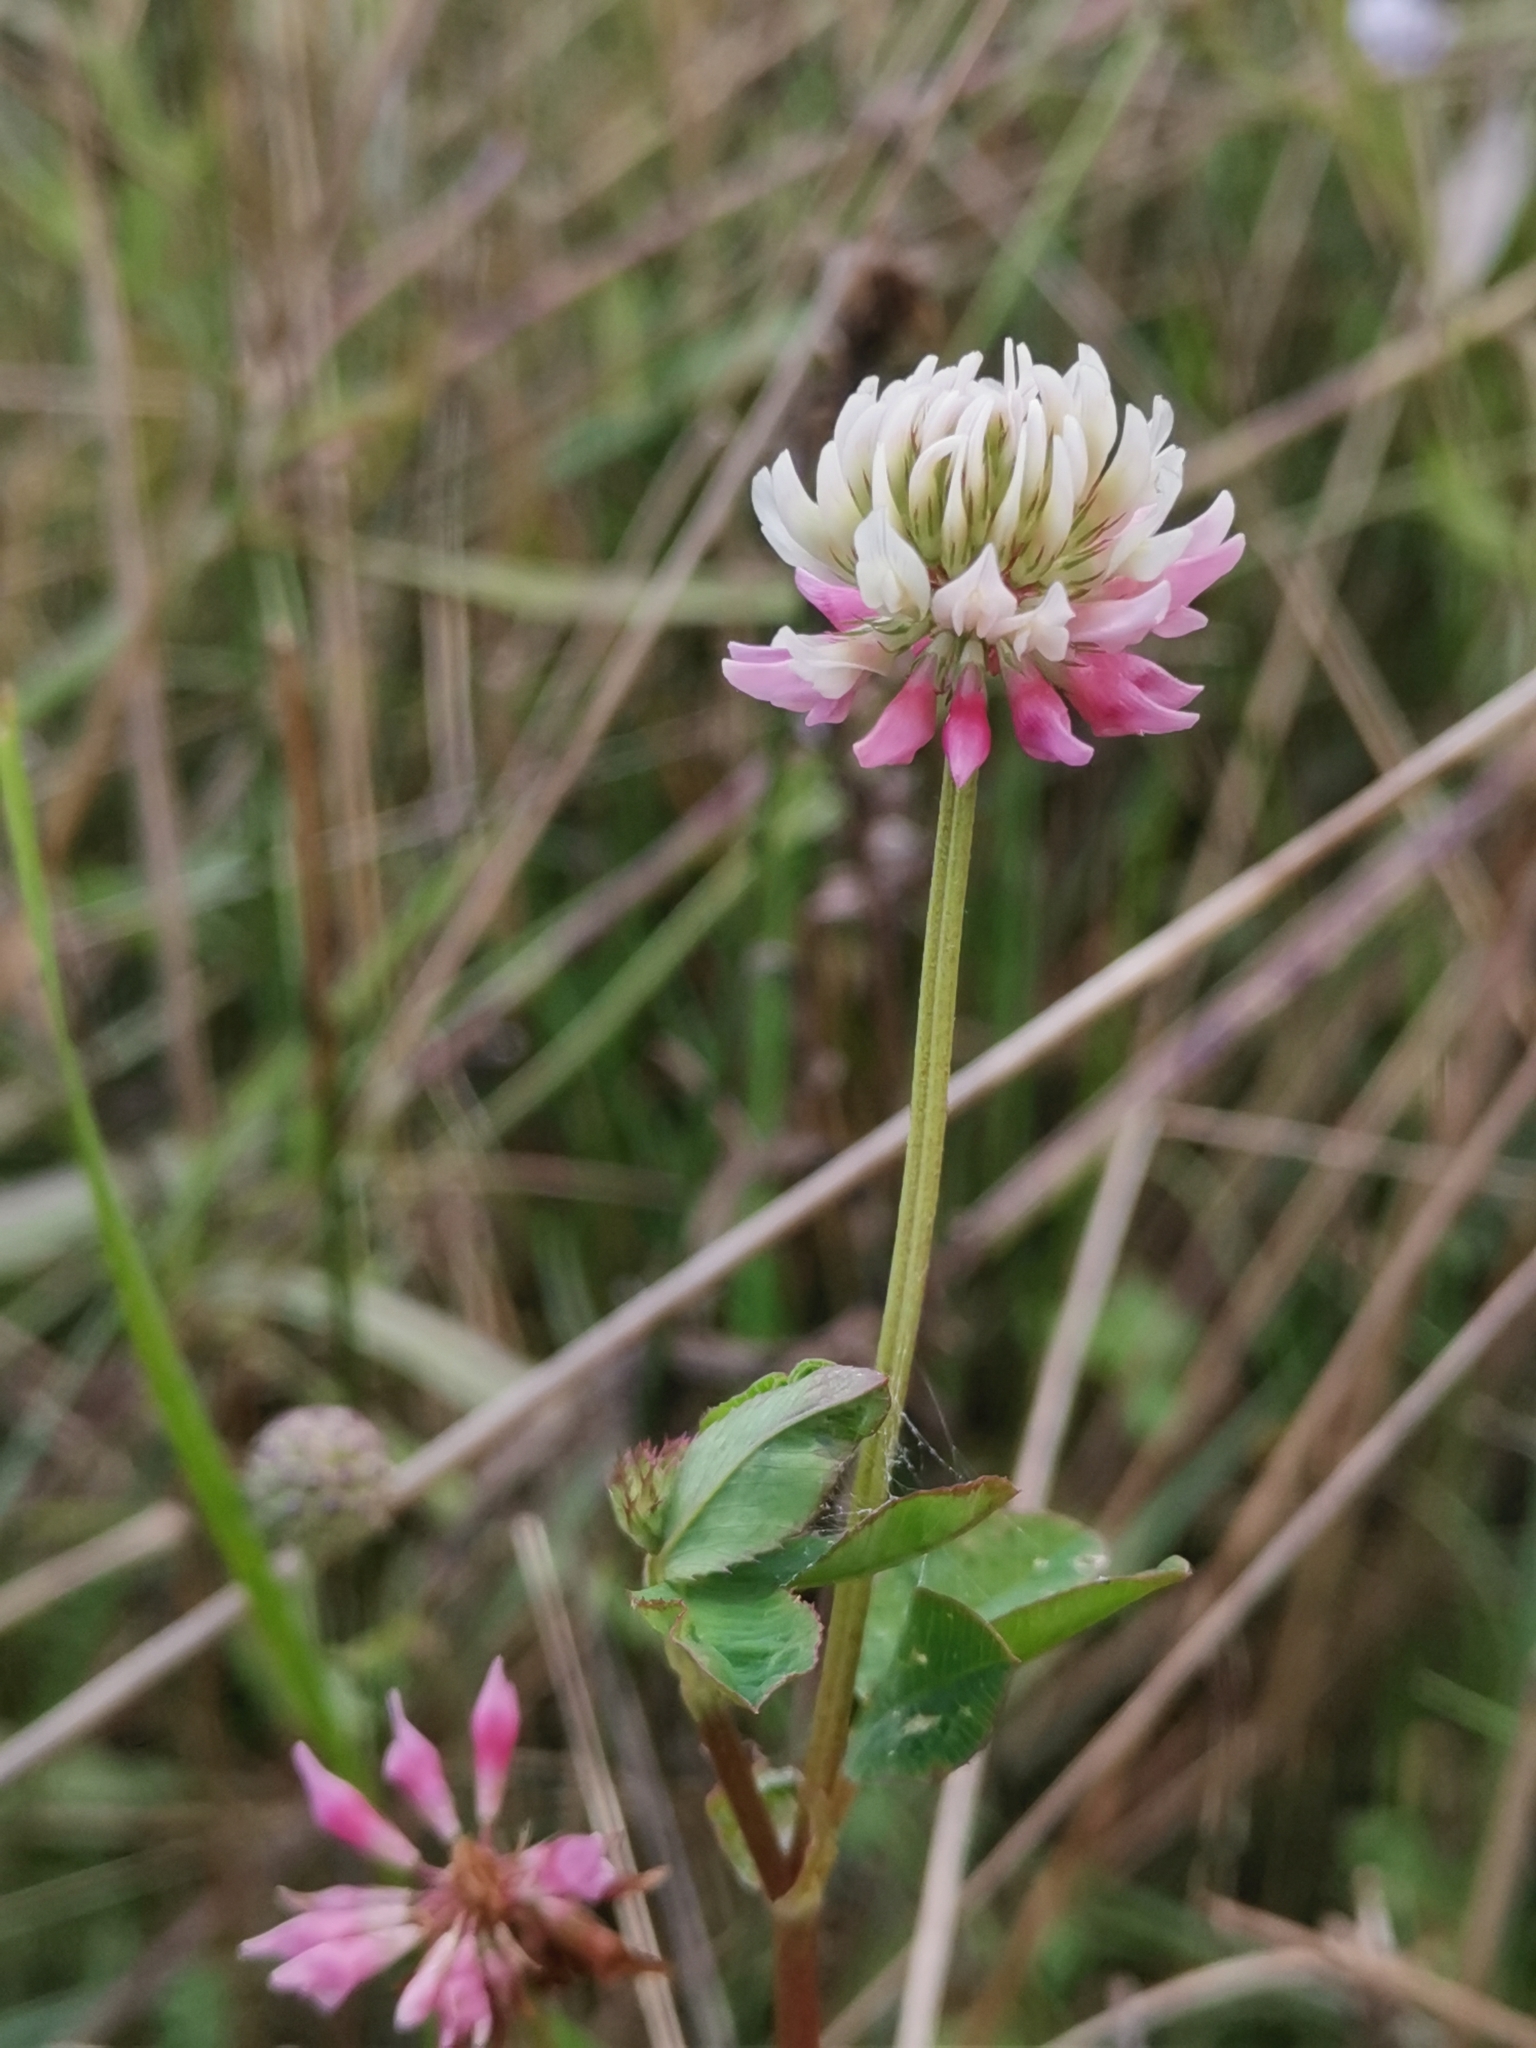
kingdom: Plantae
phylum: Tracheophyta
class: Magnoliopsida
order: Fabales
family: Fabaceae
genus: Trifolium
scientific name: Trifolium hybridum
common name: Alsike clover
